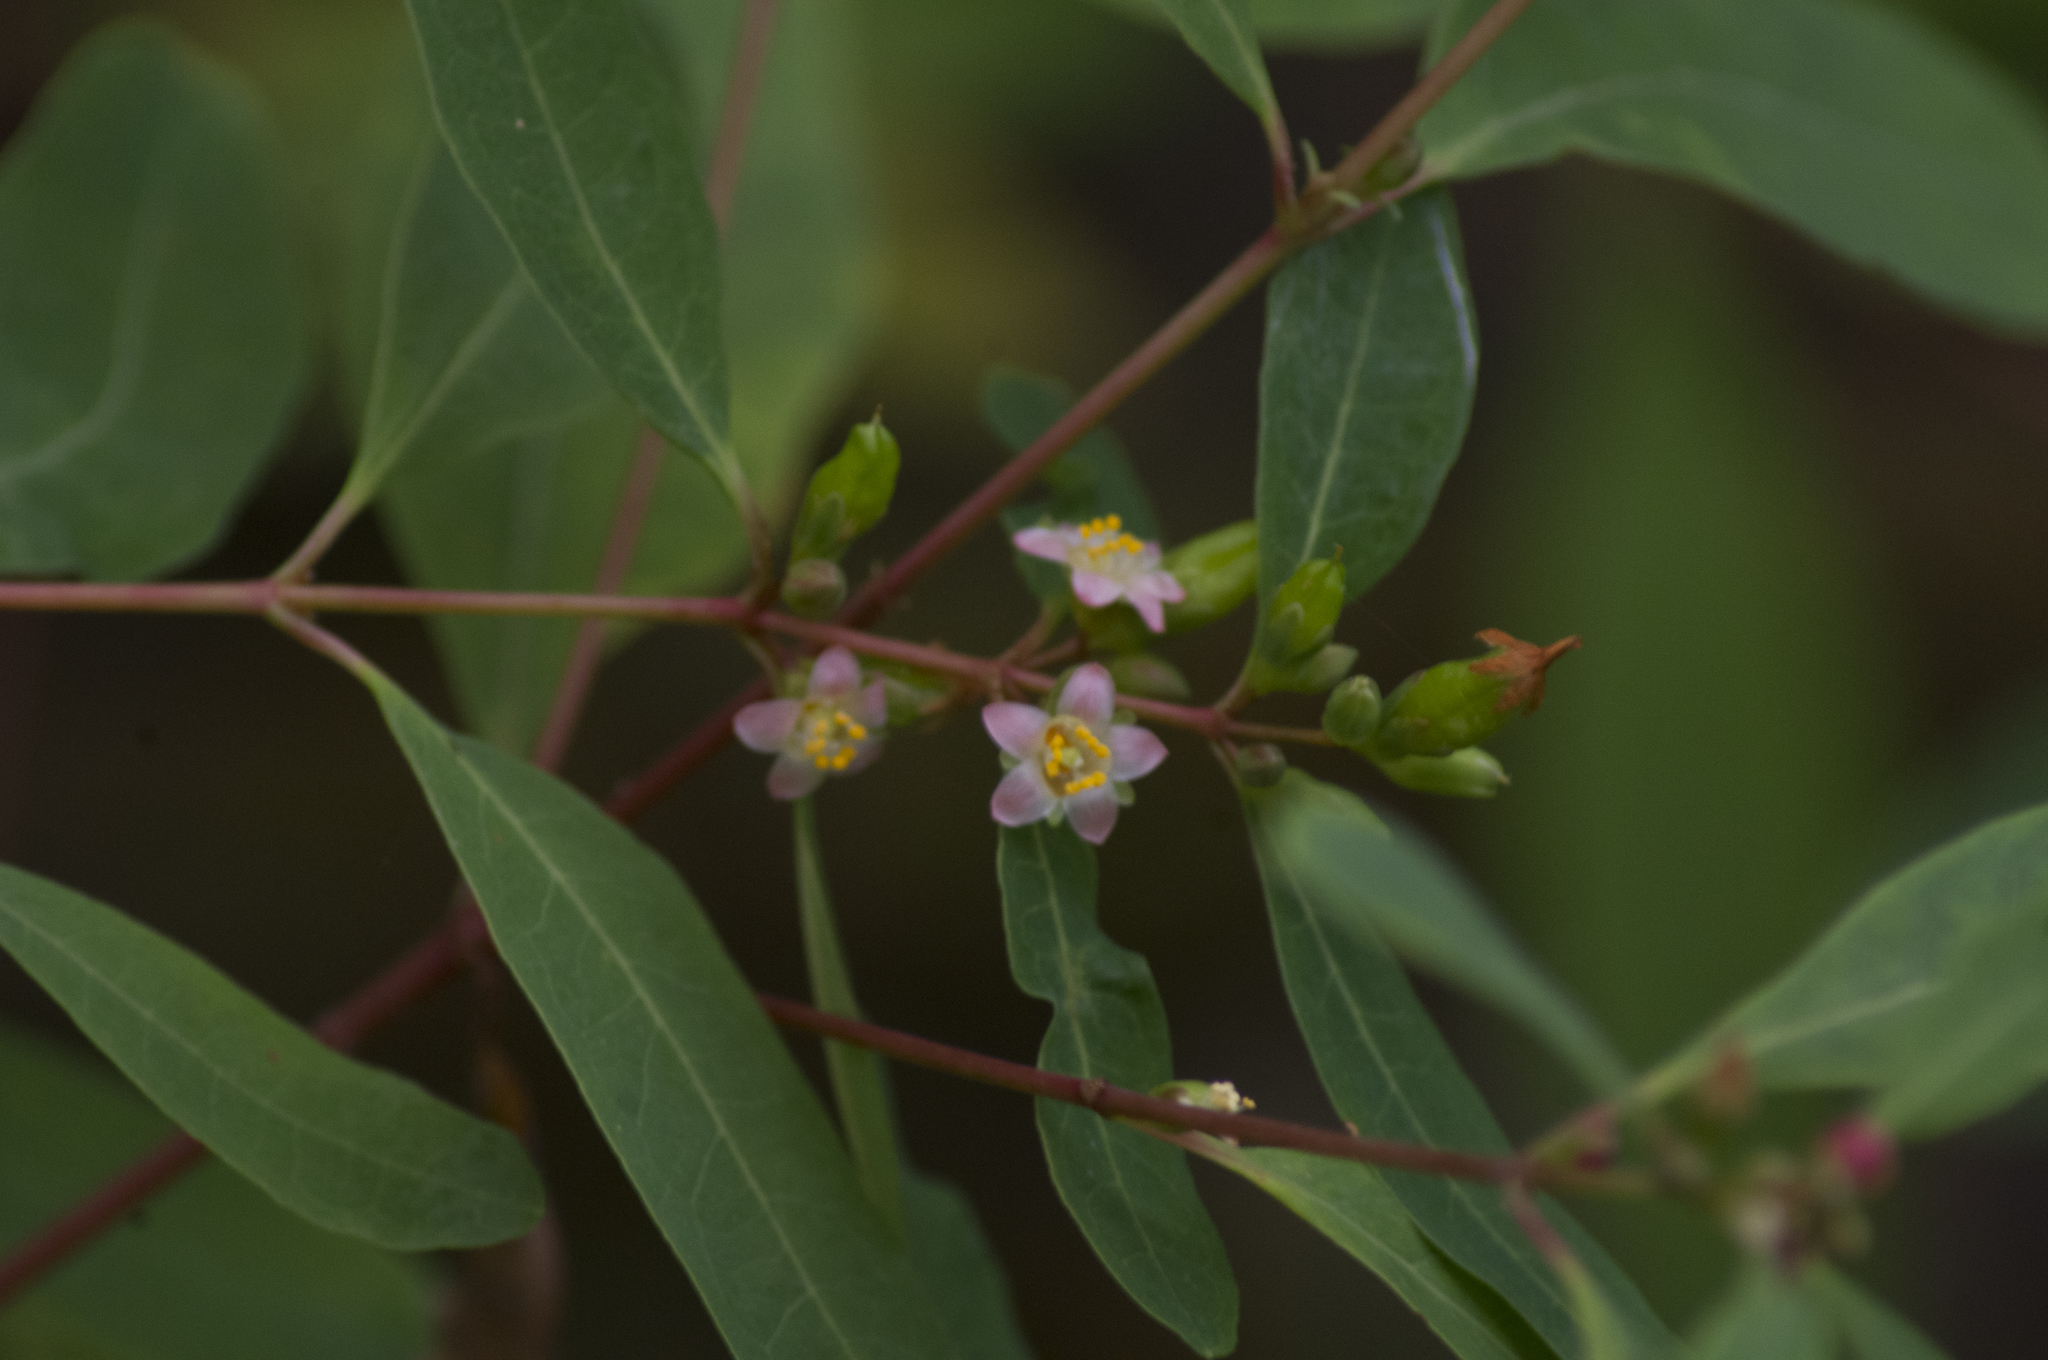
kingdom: Plantae
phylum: Tracheophyta
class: Magnoliopsida
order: Malpighiales
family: Hypericaceae
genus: Triadenum
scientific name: Triadenum tubulosum
